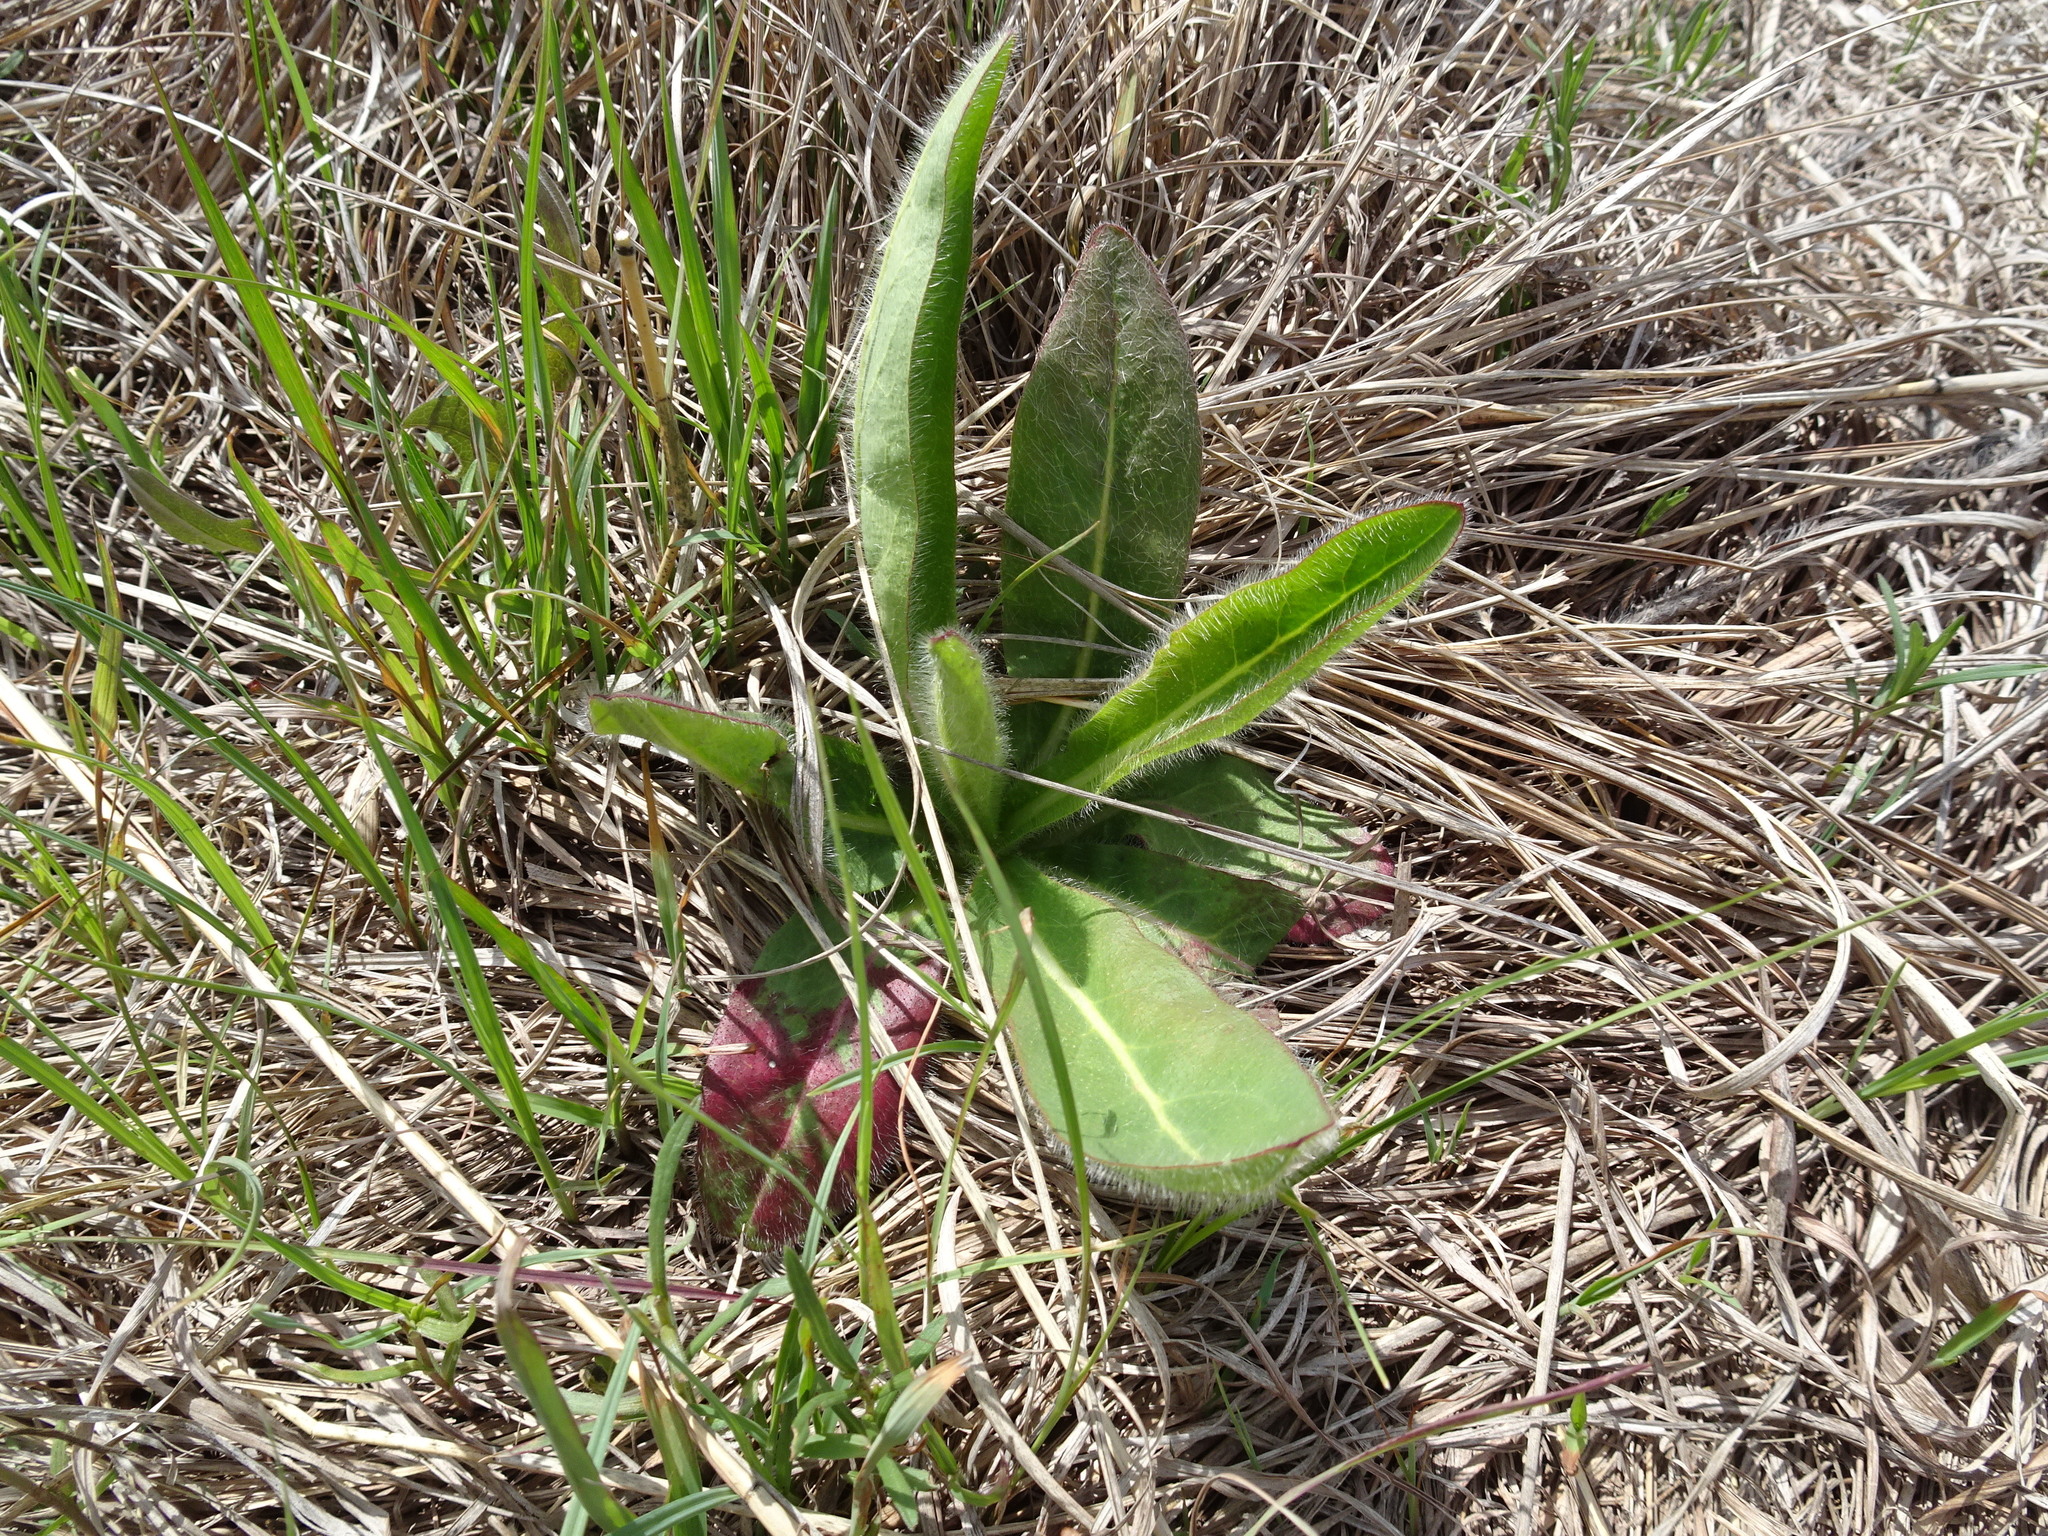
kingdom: Plantae
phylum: Tracheophyta
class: Magnoliopsida
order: Asterales
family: Asteraceae
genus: Hieracium
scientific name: Hieracium longipilum
